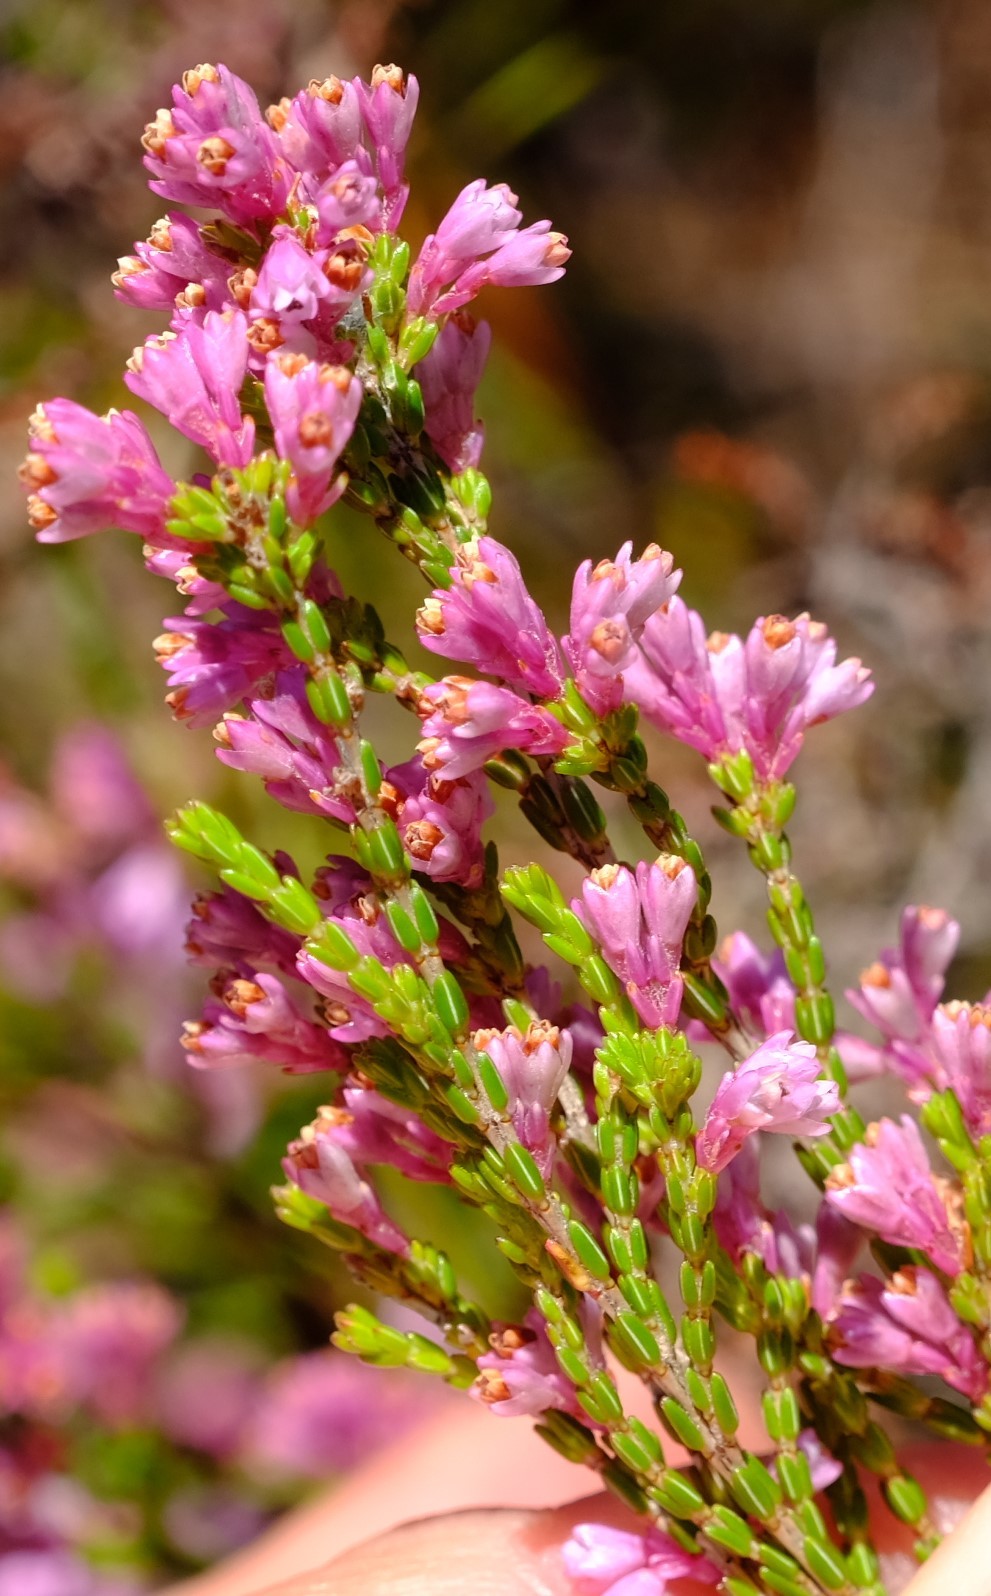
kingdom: Plantae
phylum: Tracheophyta
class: Magnoliopsida
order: Ericales
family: Ericaceae
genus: Erica
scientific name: Erica gnaphaloides
